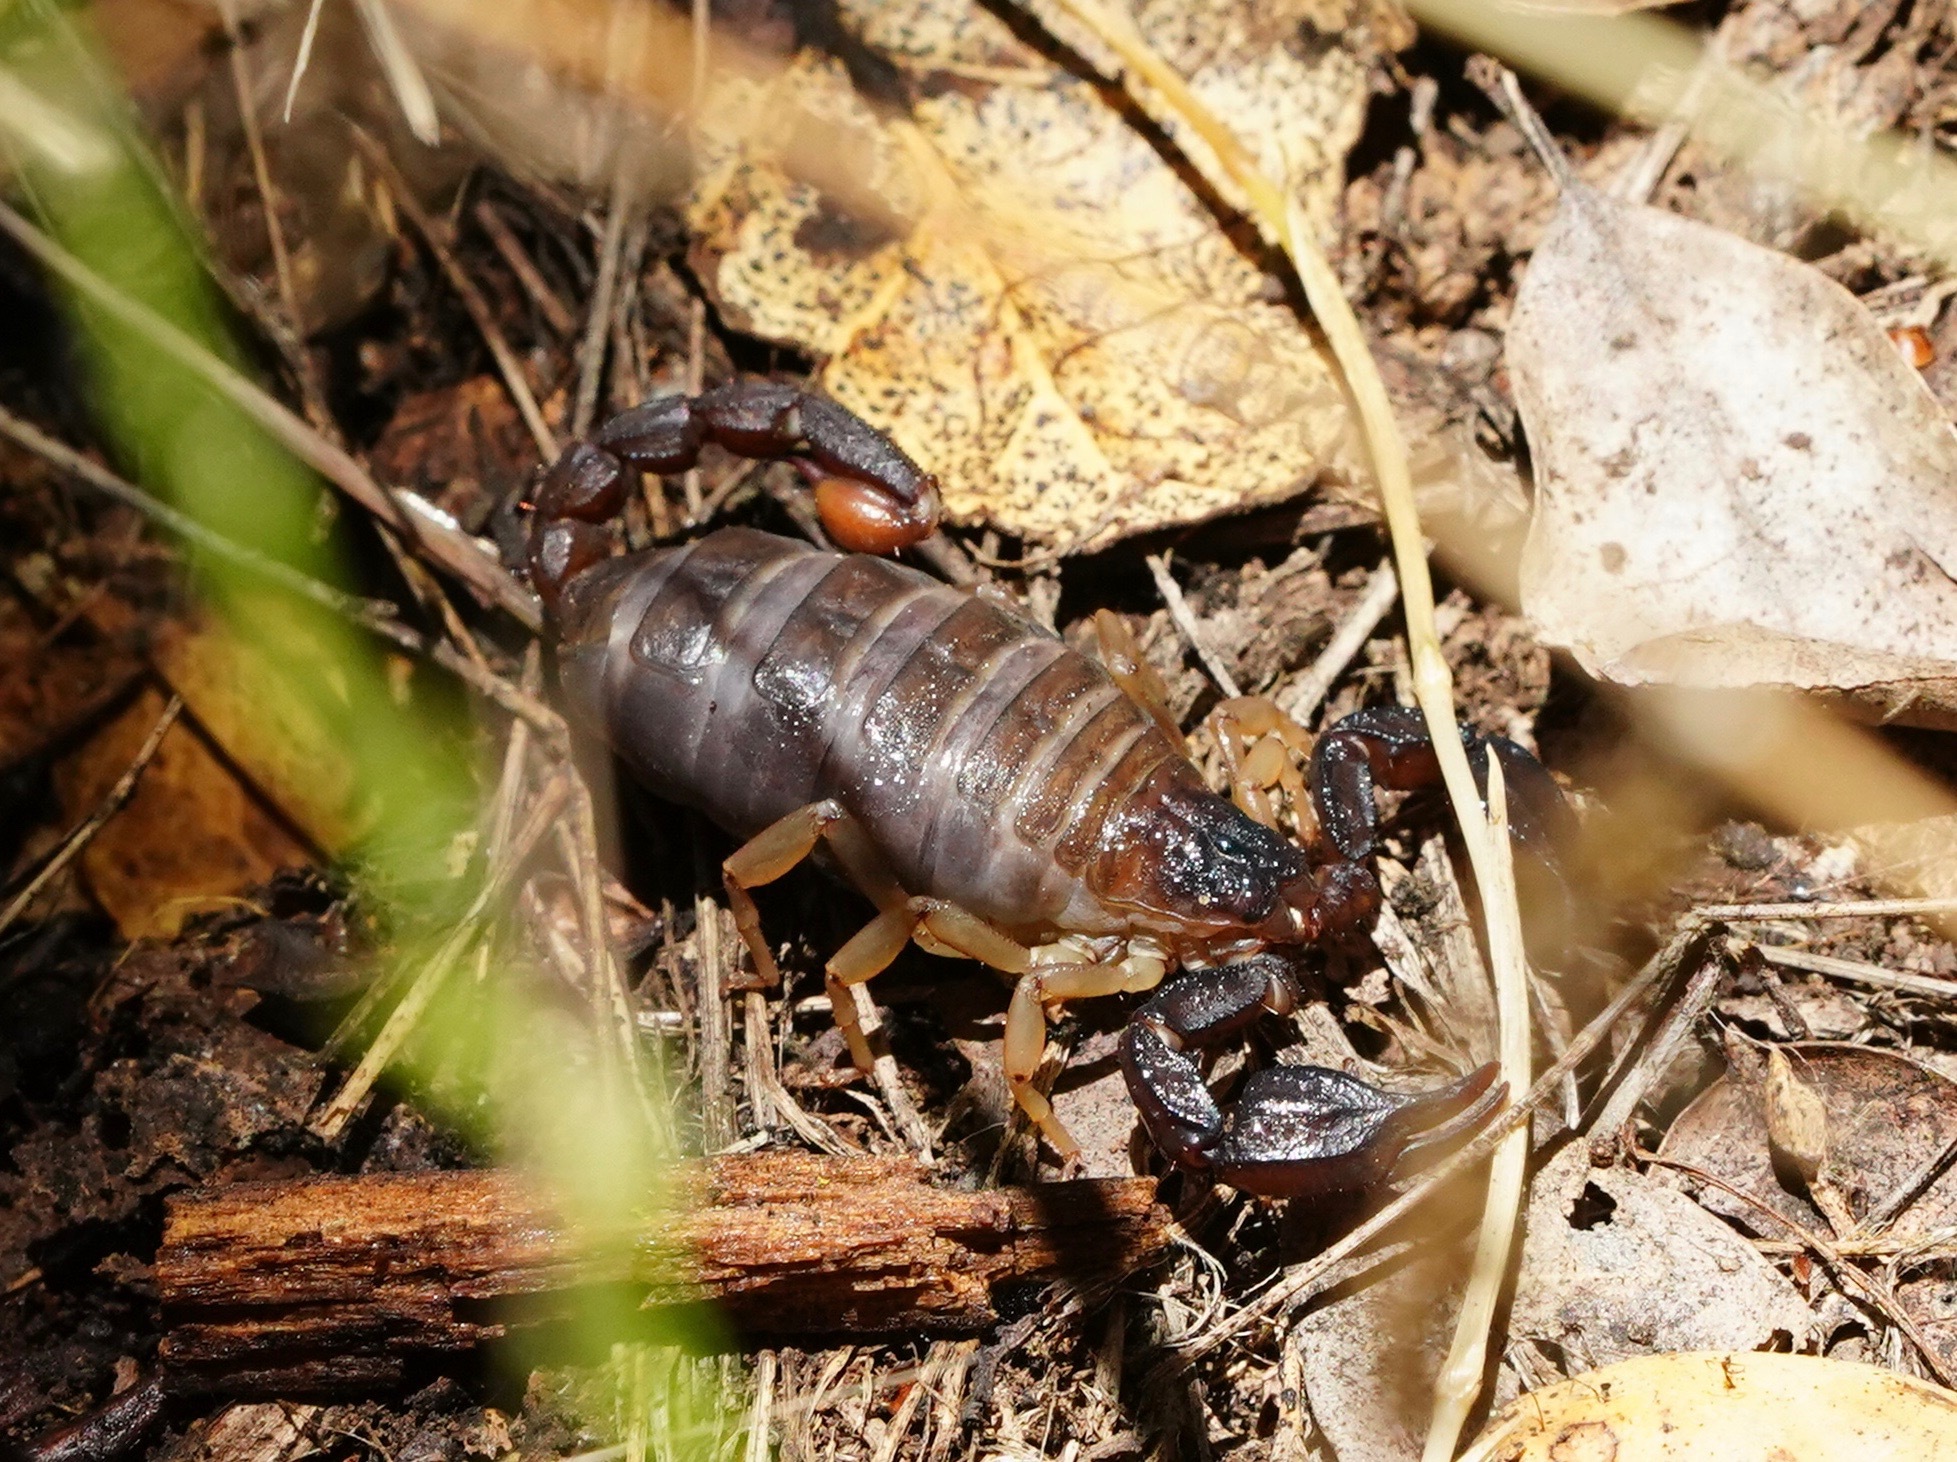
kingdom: Animalia
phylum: Arthropoda
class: Arachnida
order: Scorpiones
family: Chactidae
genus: Uroctonus
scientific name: Uroctonus mordax
